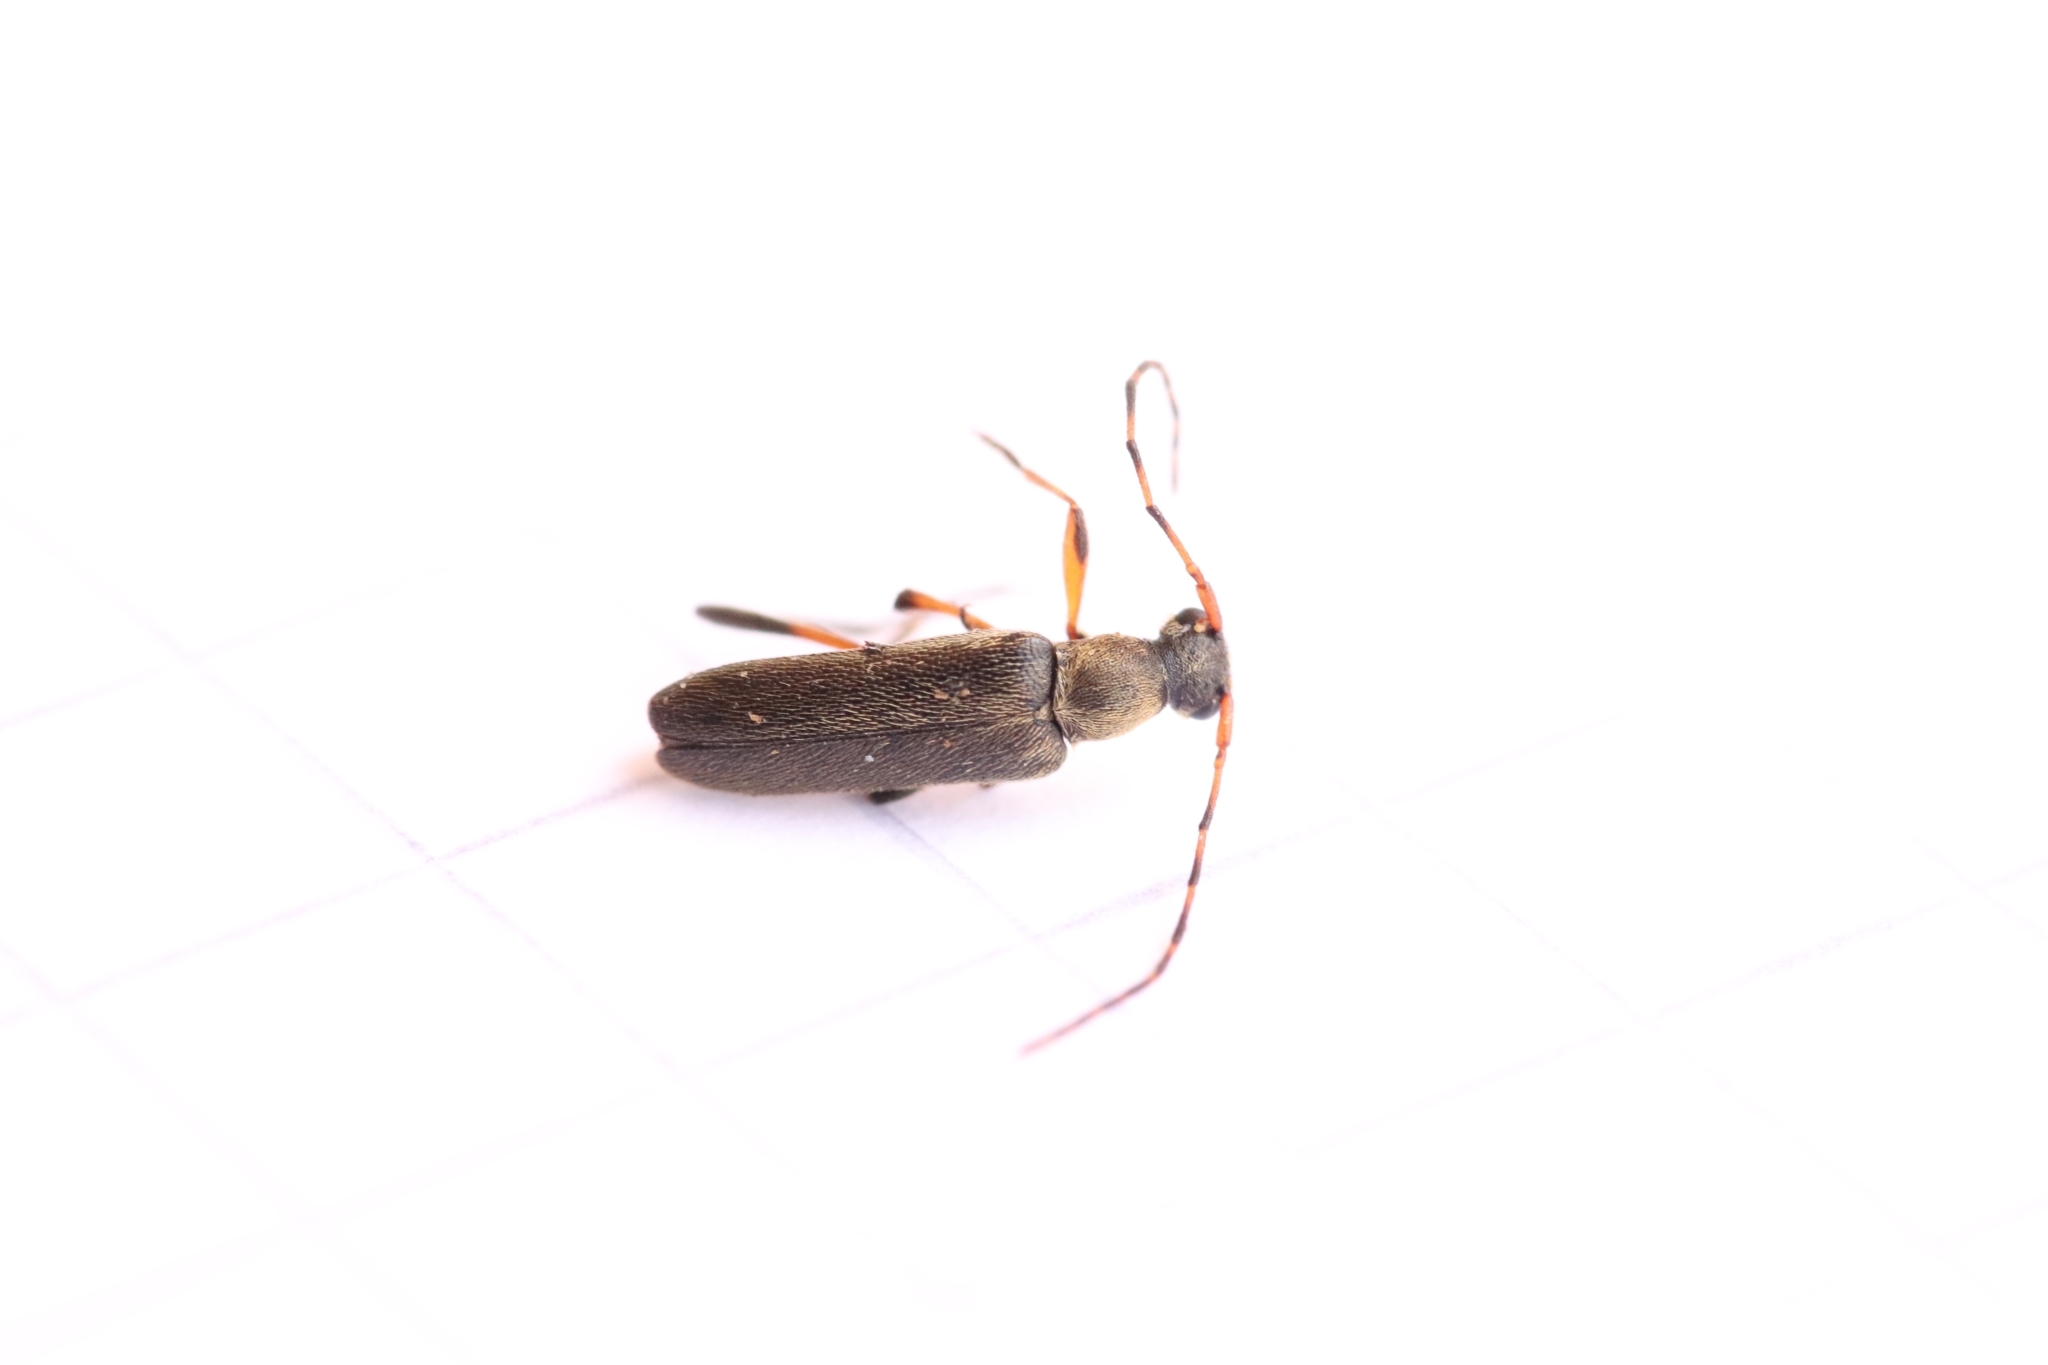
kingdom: Animalia
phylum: Arthropoda
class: Insecta
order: Coleoptera
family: Cerambycidae
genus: Grammoptera
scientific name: Grammoptera ruficornis
